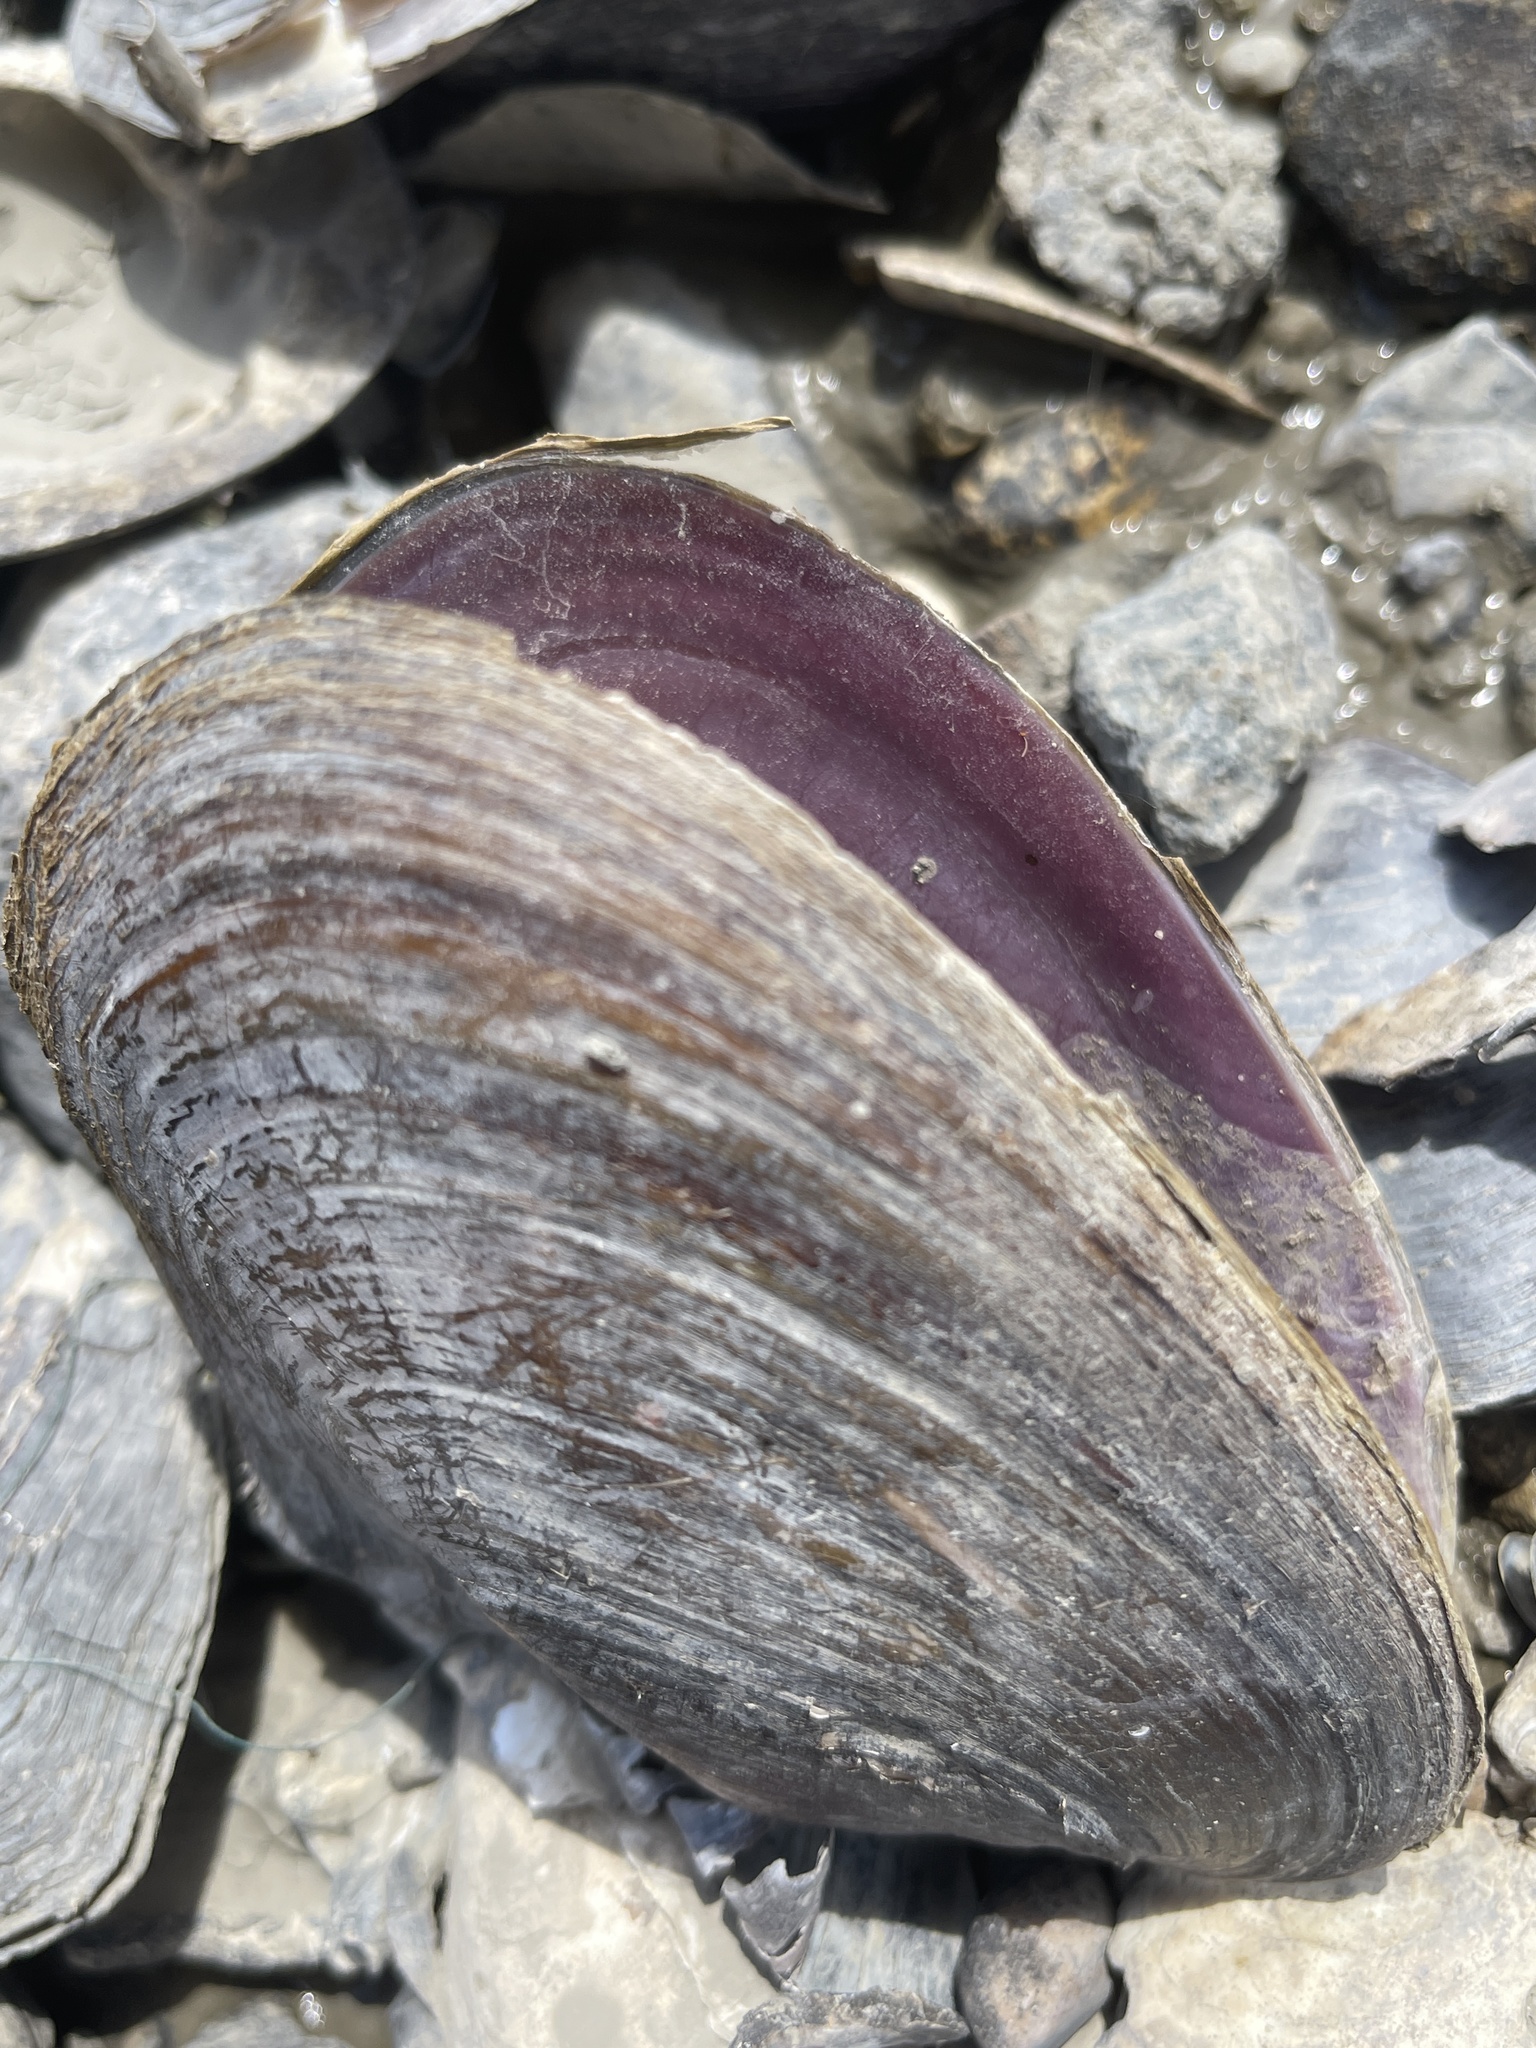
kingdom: Animalia
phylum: Mollusca
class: Bivalvia
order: Unionida
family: Unionidae
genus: Potamilus
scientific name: Potamilus alatus
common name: Pink heelsplitter
